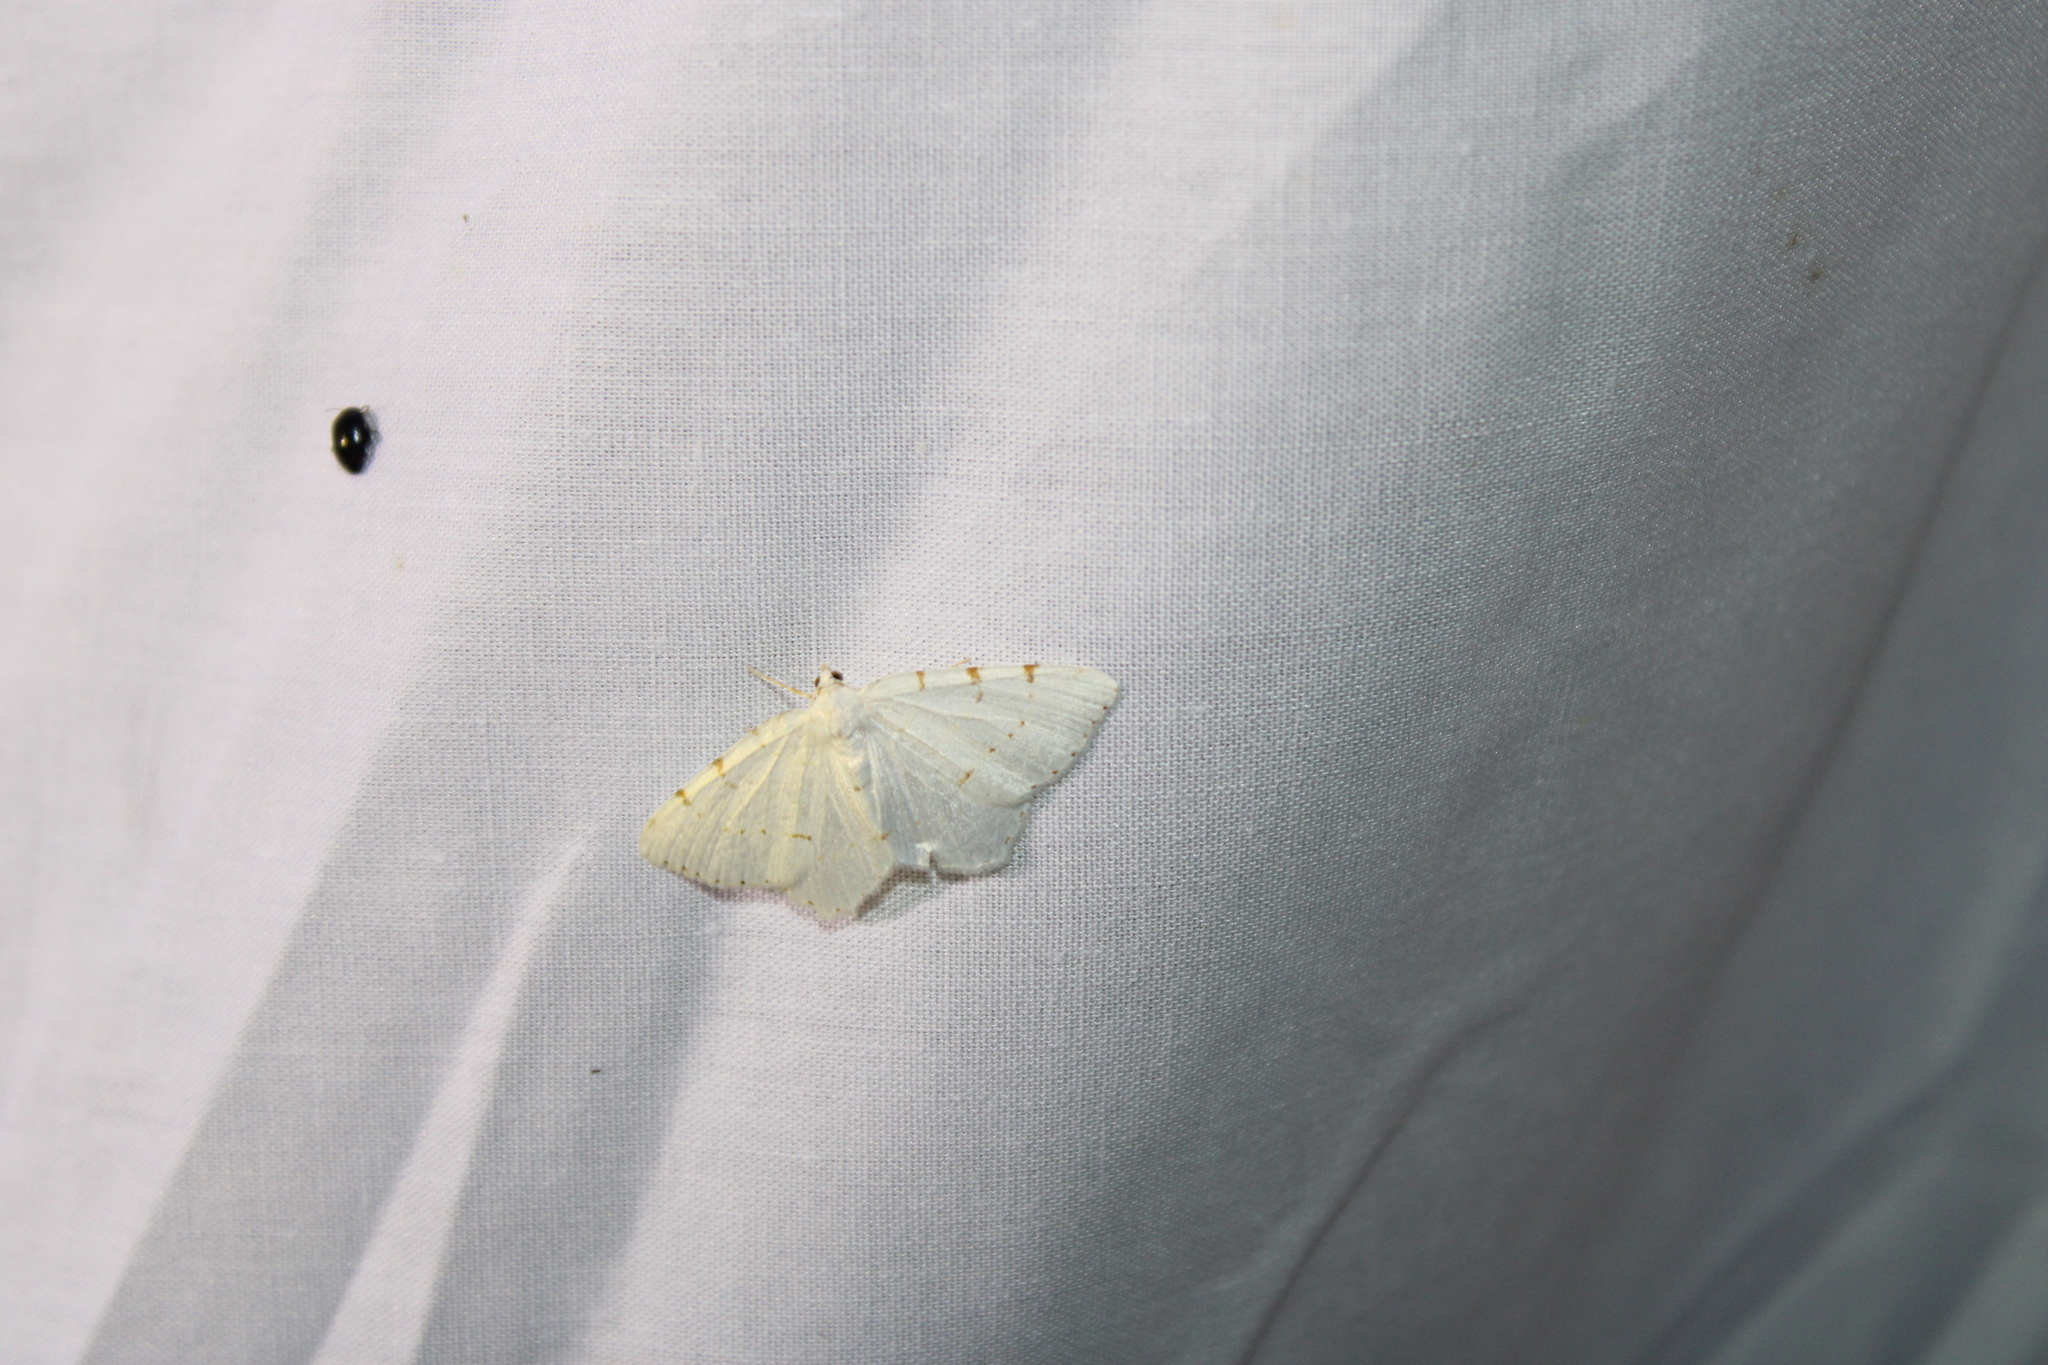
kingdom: Animalia
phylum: Arthropoda
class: Insecta
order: Lepidoptera
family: Geometridae
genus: Macaria
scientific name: Macaria pustularia
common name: Lesser maple spanworm moth
